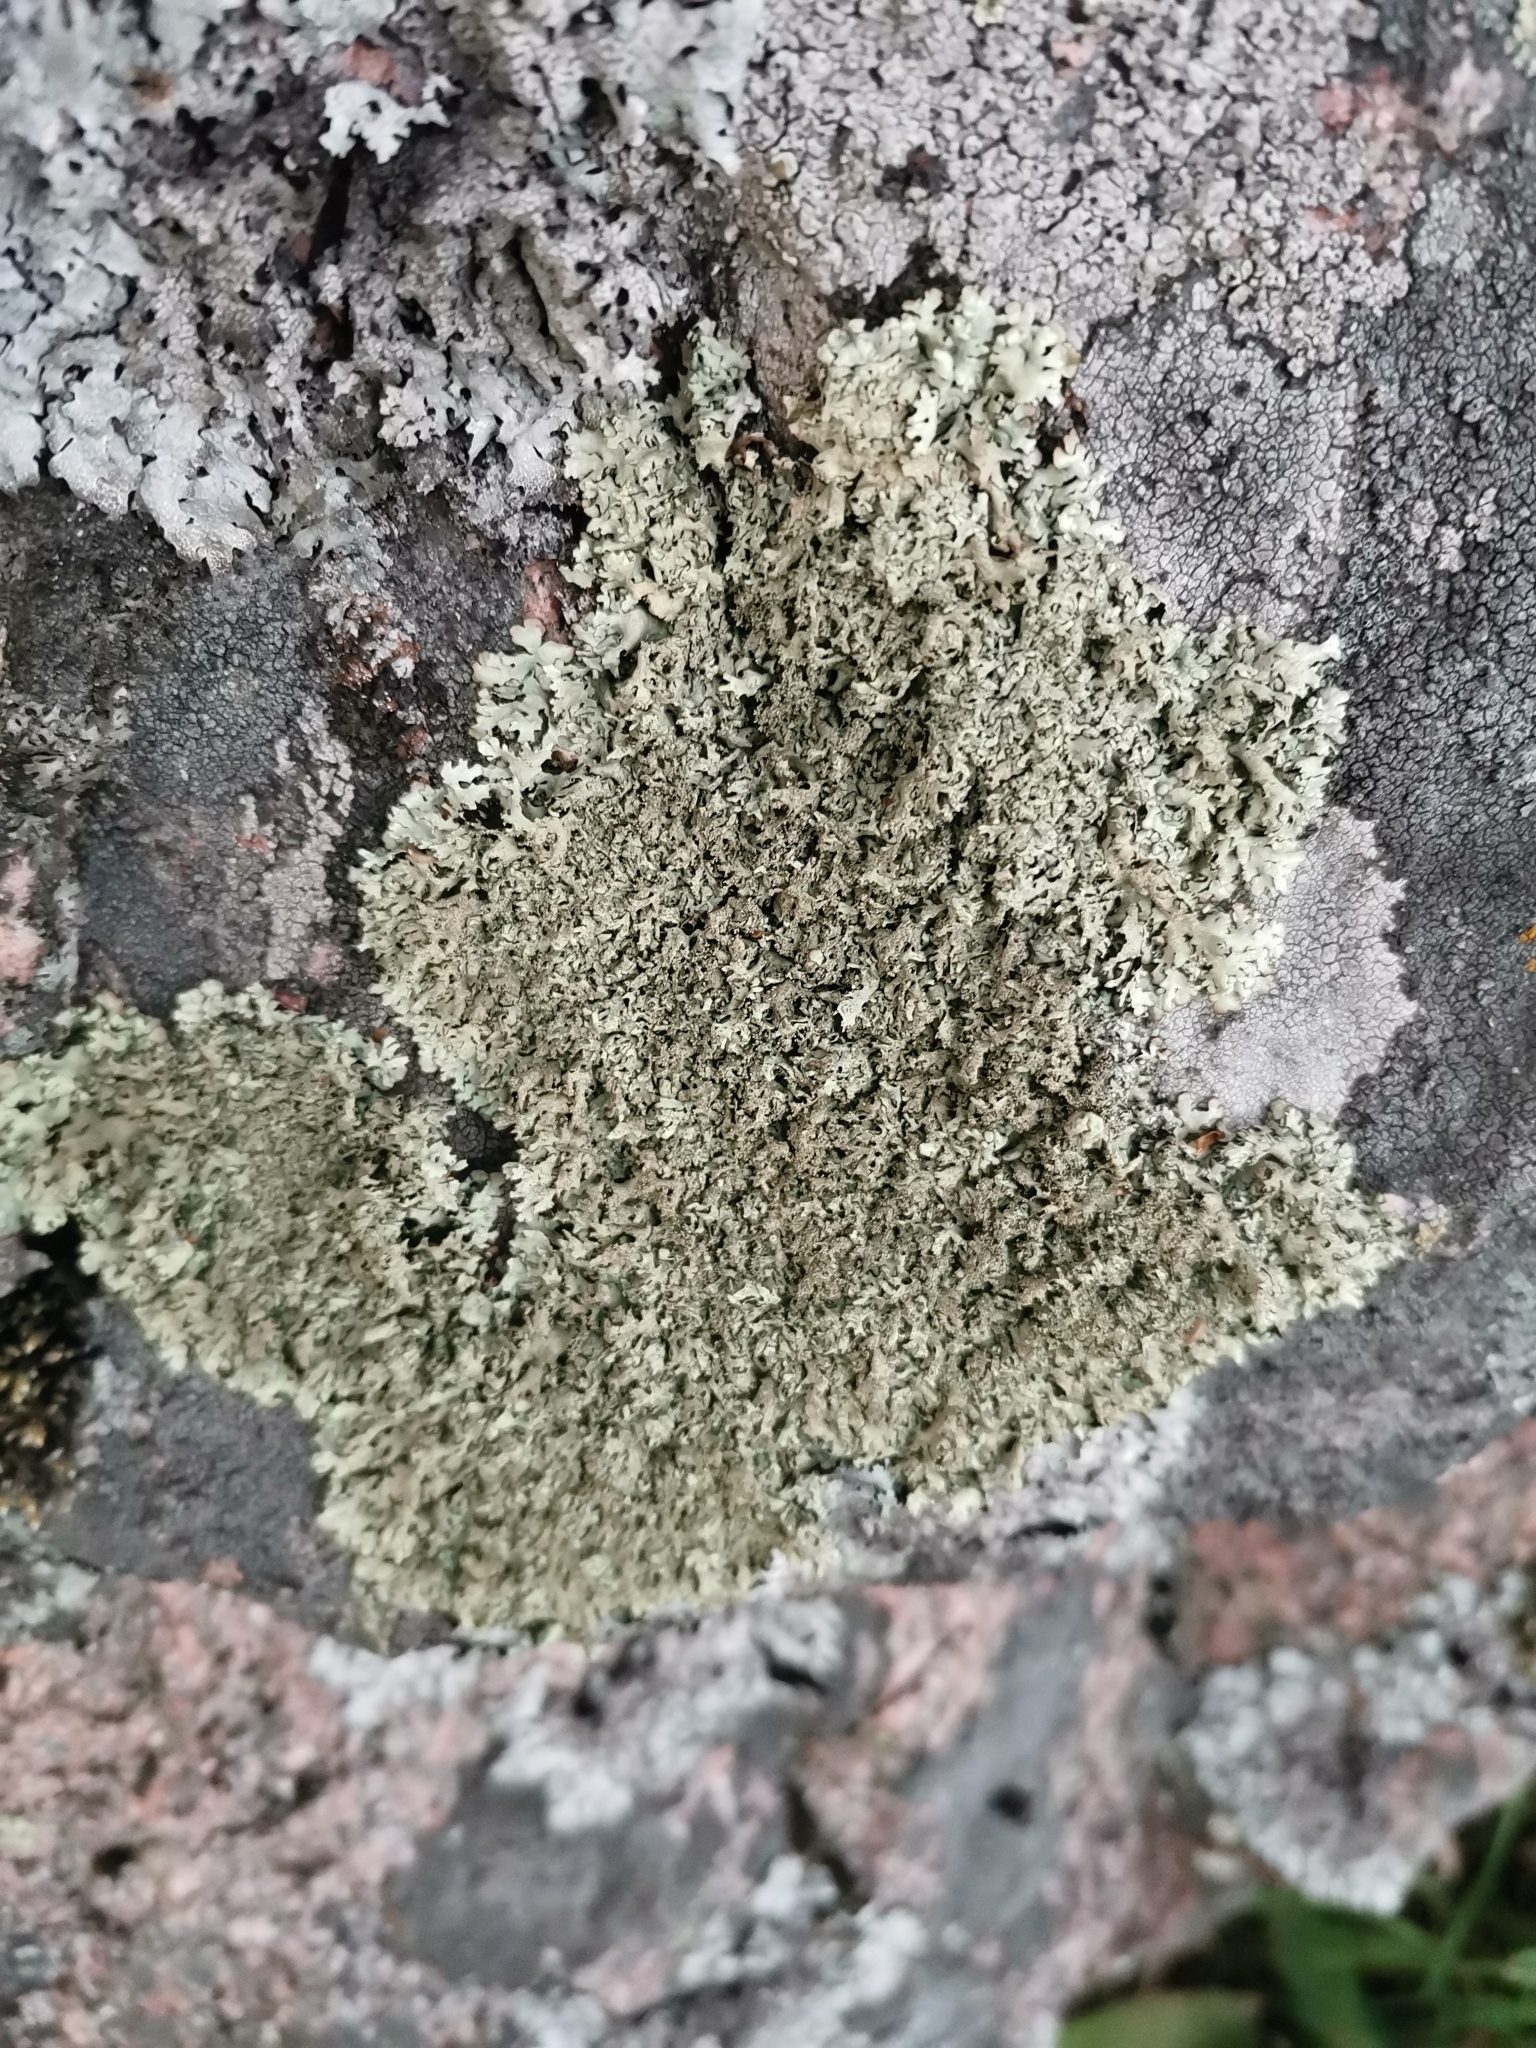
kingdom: Fungi
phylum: Ascomycota
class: Lecanoromycetes
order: Lecanorales
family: Parmeliaceae
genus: Xanthoparmelia
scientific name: Xanthoparmelia stenophylla
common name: Shingled rock shield
